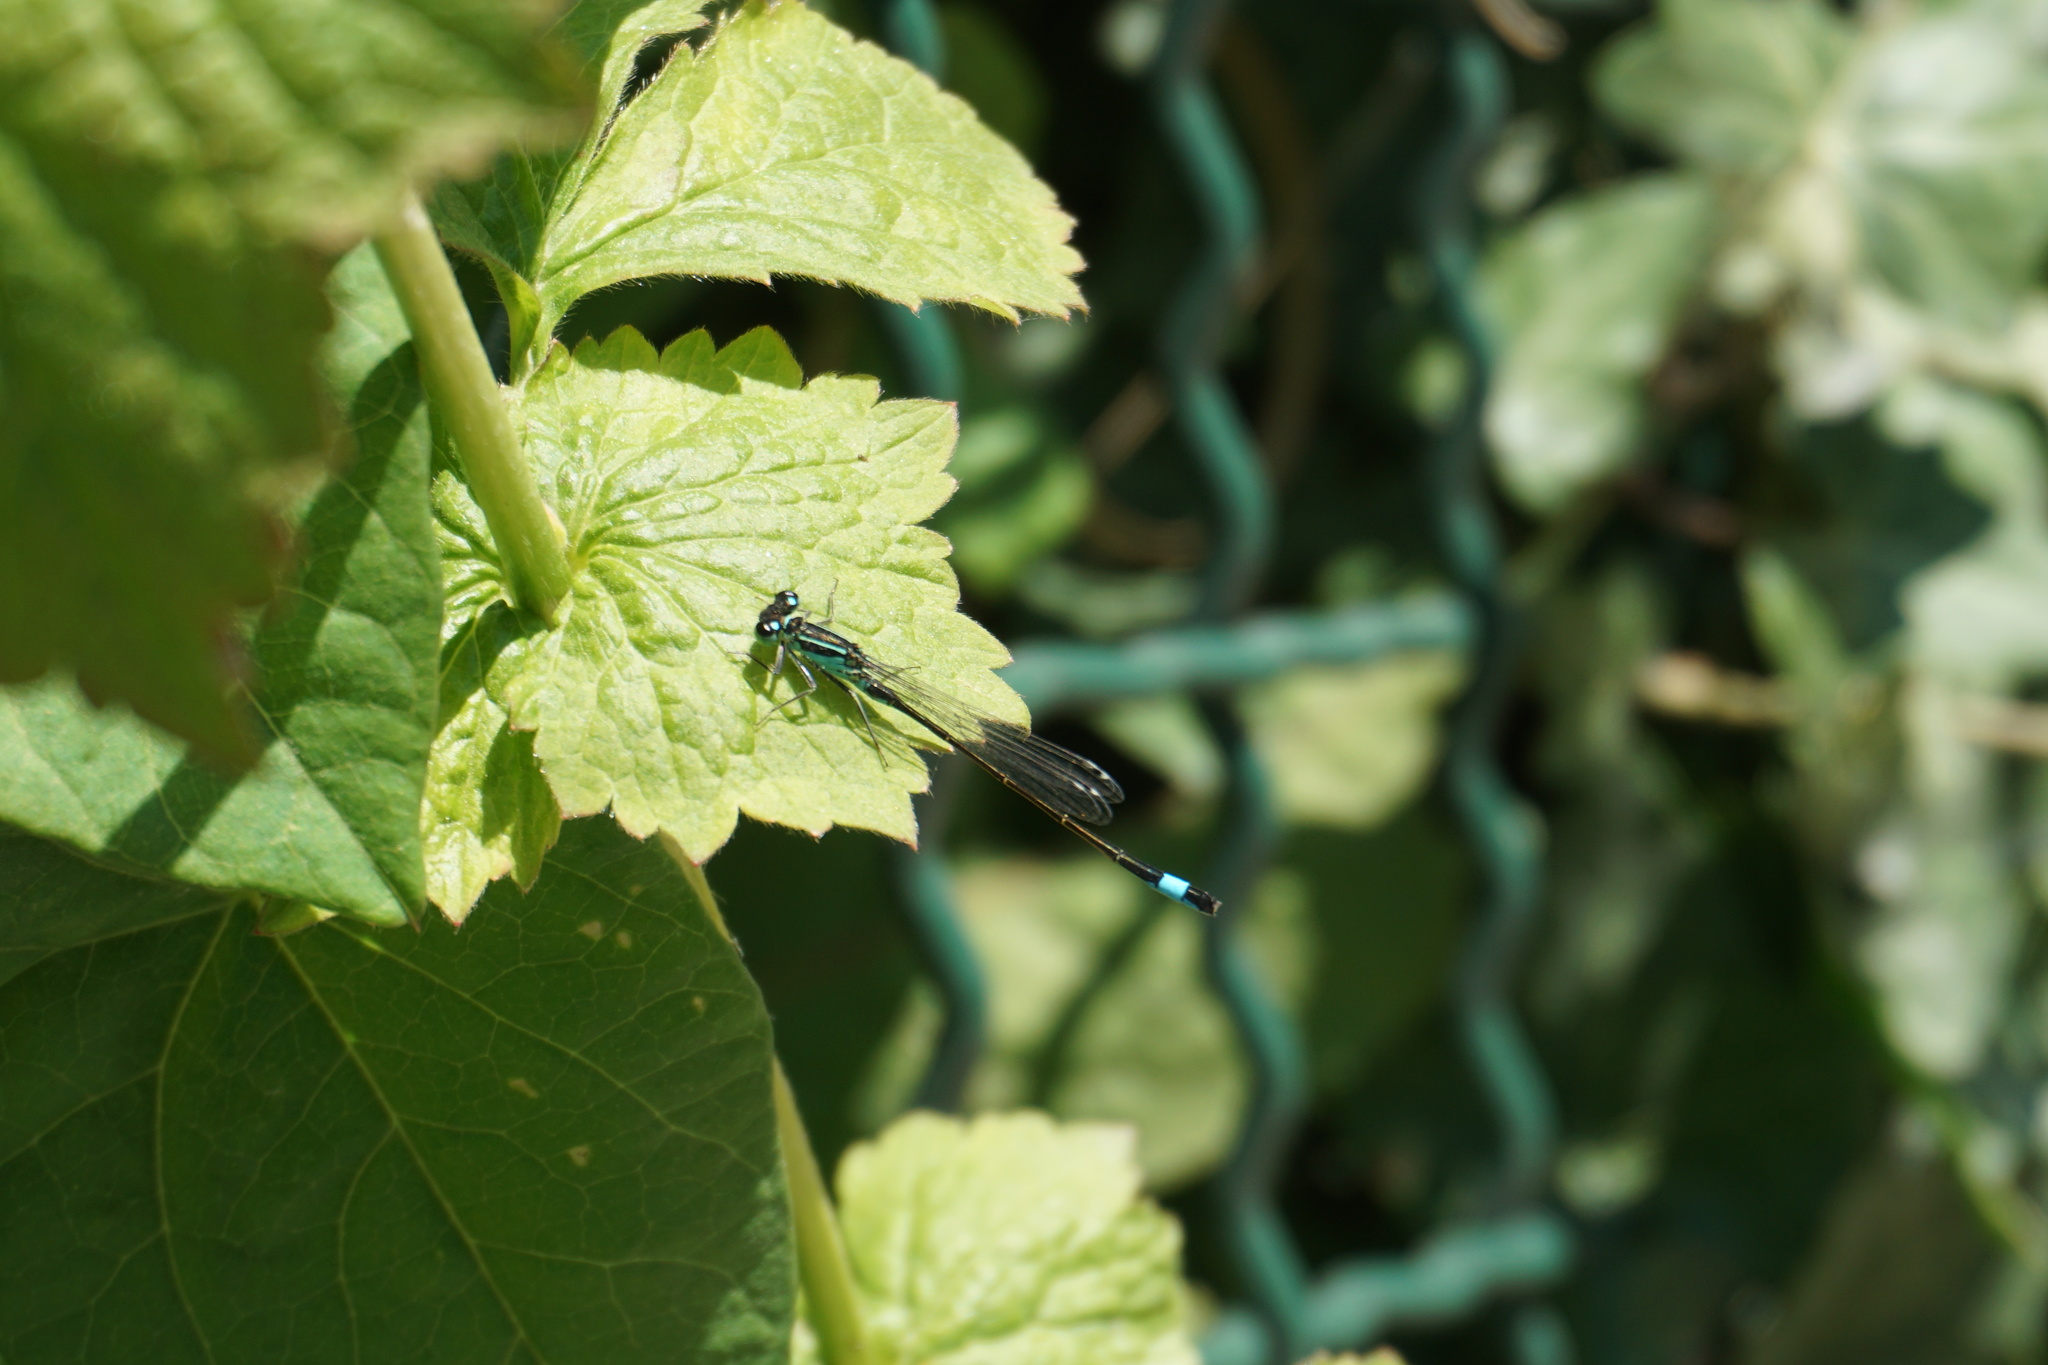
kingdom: Animalia
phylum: Arthropoda
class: Insecta
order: Odonata
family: Coenagrionidae
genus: Ischnura
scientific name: Ischnura elegans
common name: Blue-tailed damselfly
